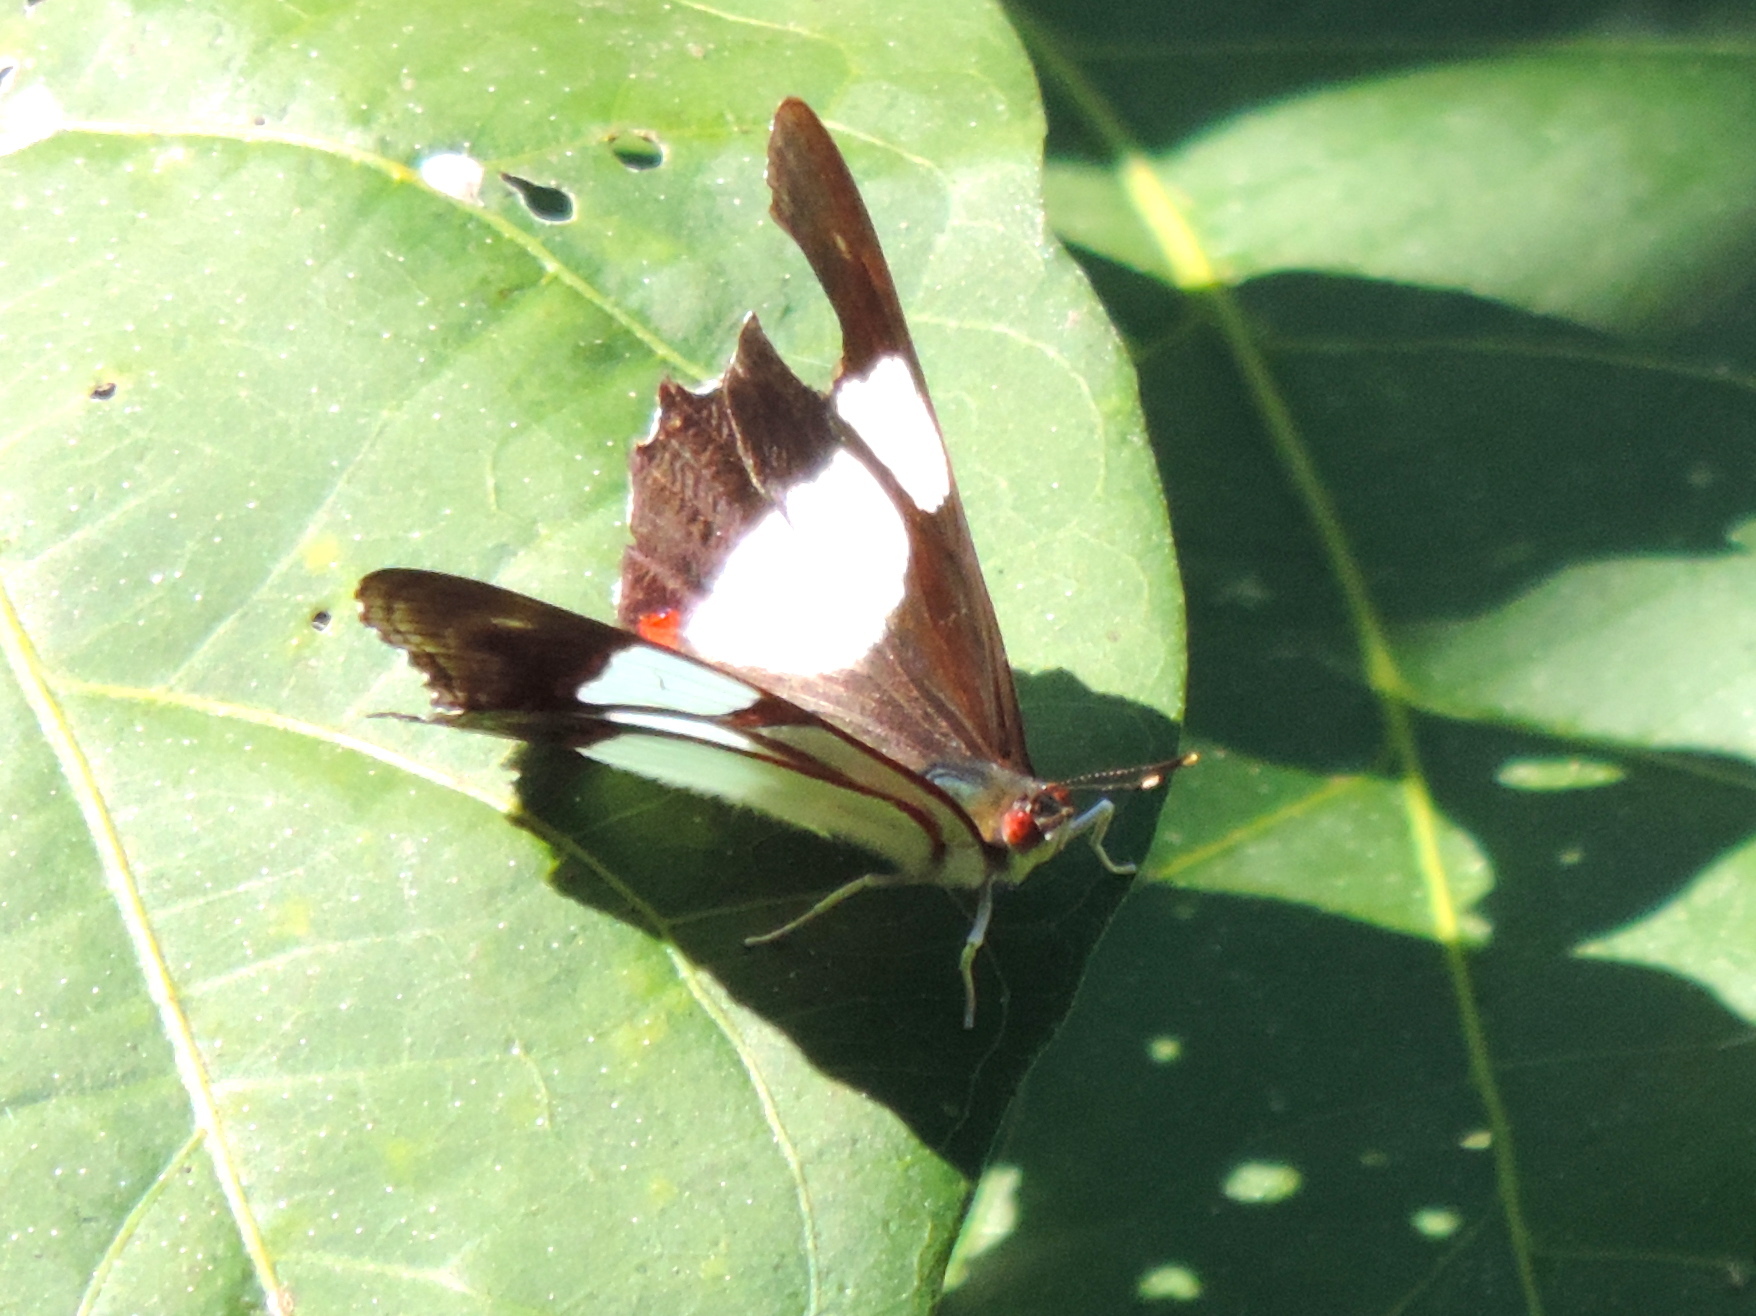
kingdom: Animalia
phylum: Arthropoda
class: Insecta
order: Lepidoptera
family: Nymphalidae
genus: Pyrrhogyra
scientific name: Pyrrhogyra neaerea
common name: Leading red-ring
